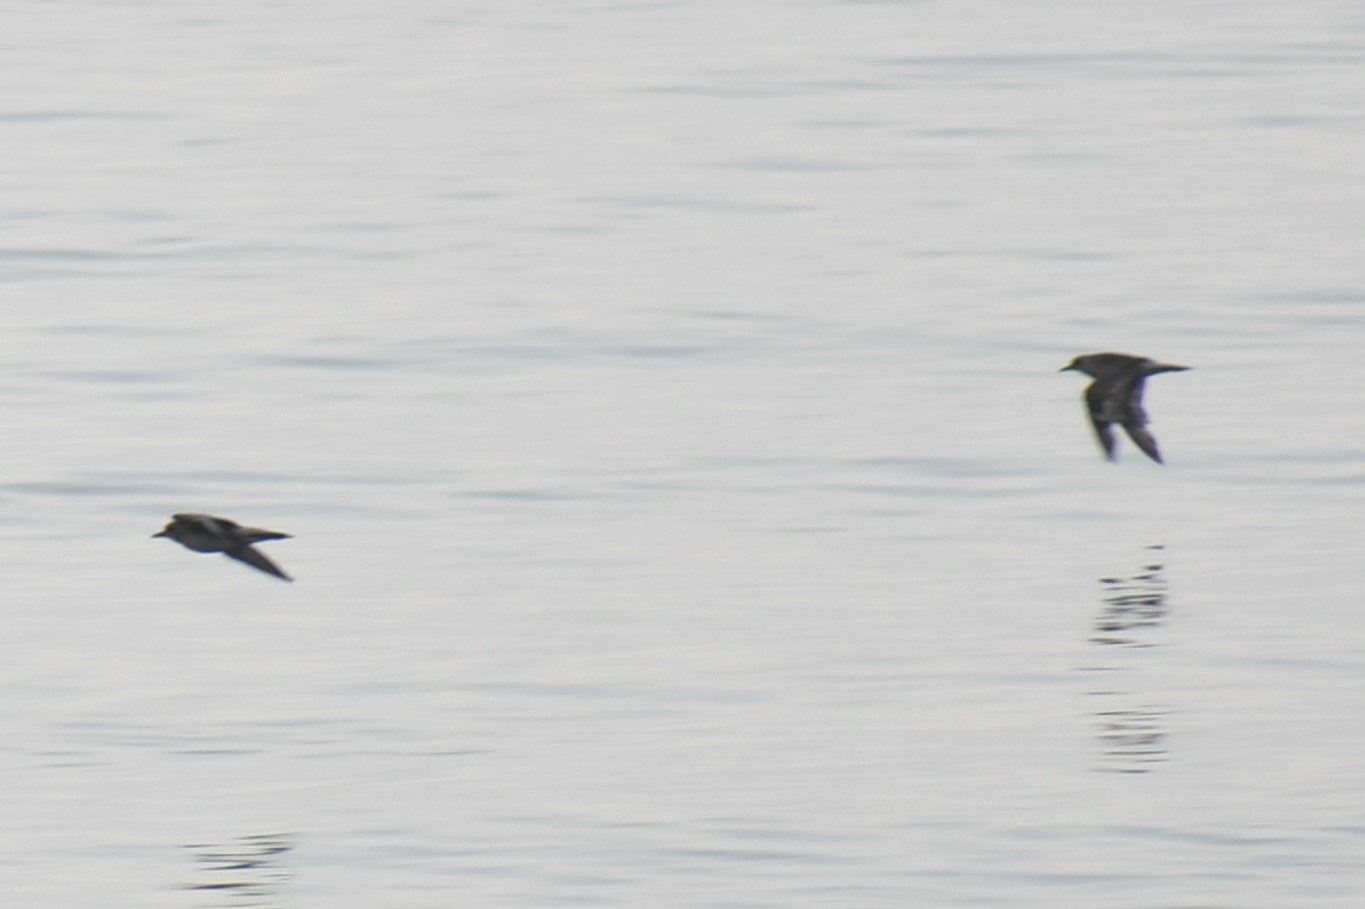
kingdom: Animalia
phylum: Chordata
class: Aves
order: Charadriiformes
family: Charadriidae
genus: Pluvialis
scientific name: Pluvialis squatarola
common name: Grey plover
